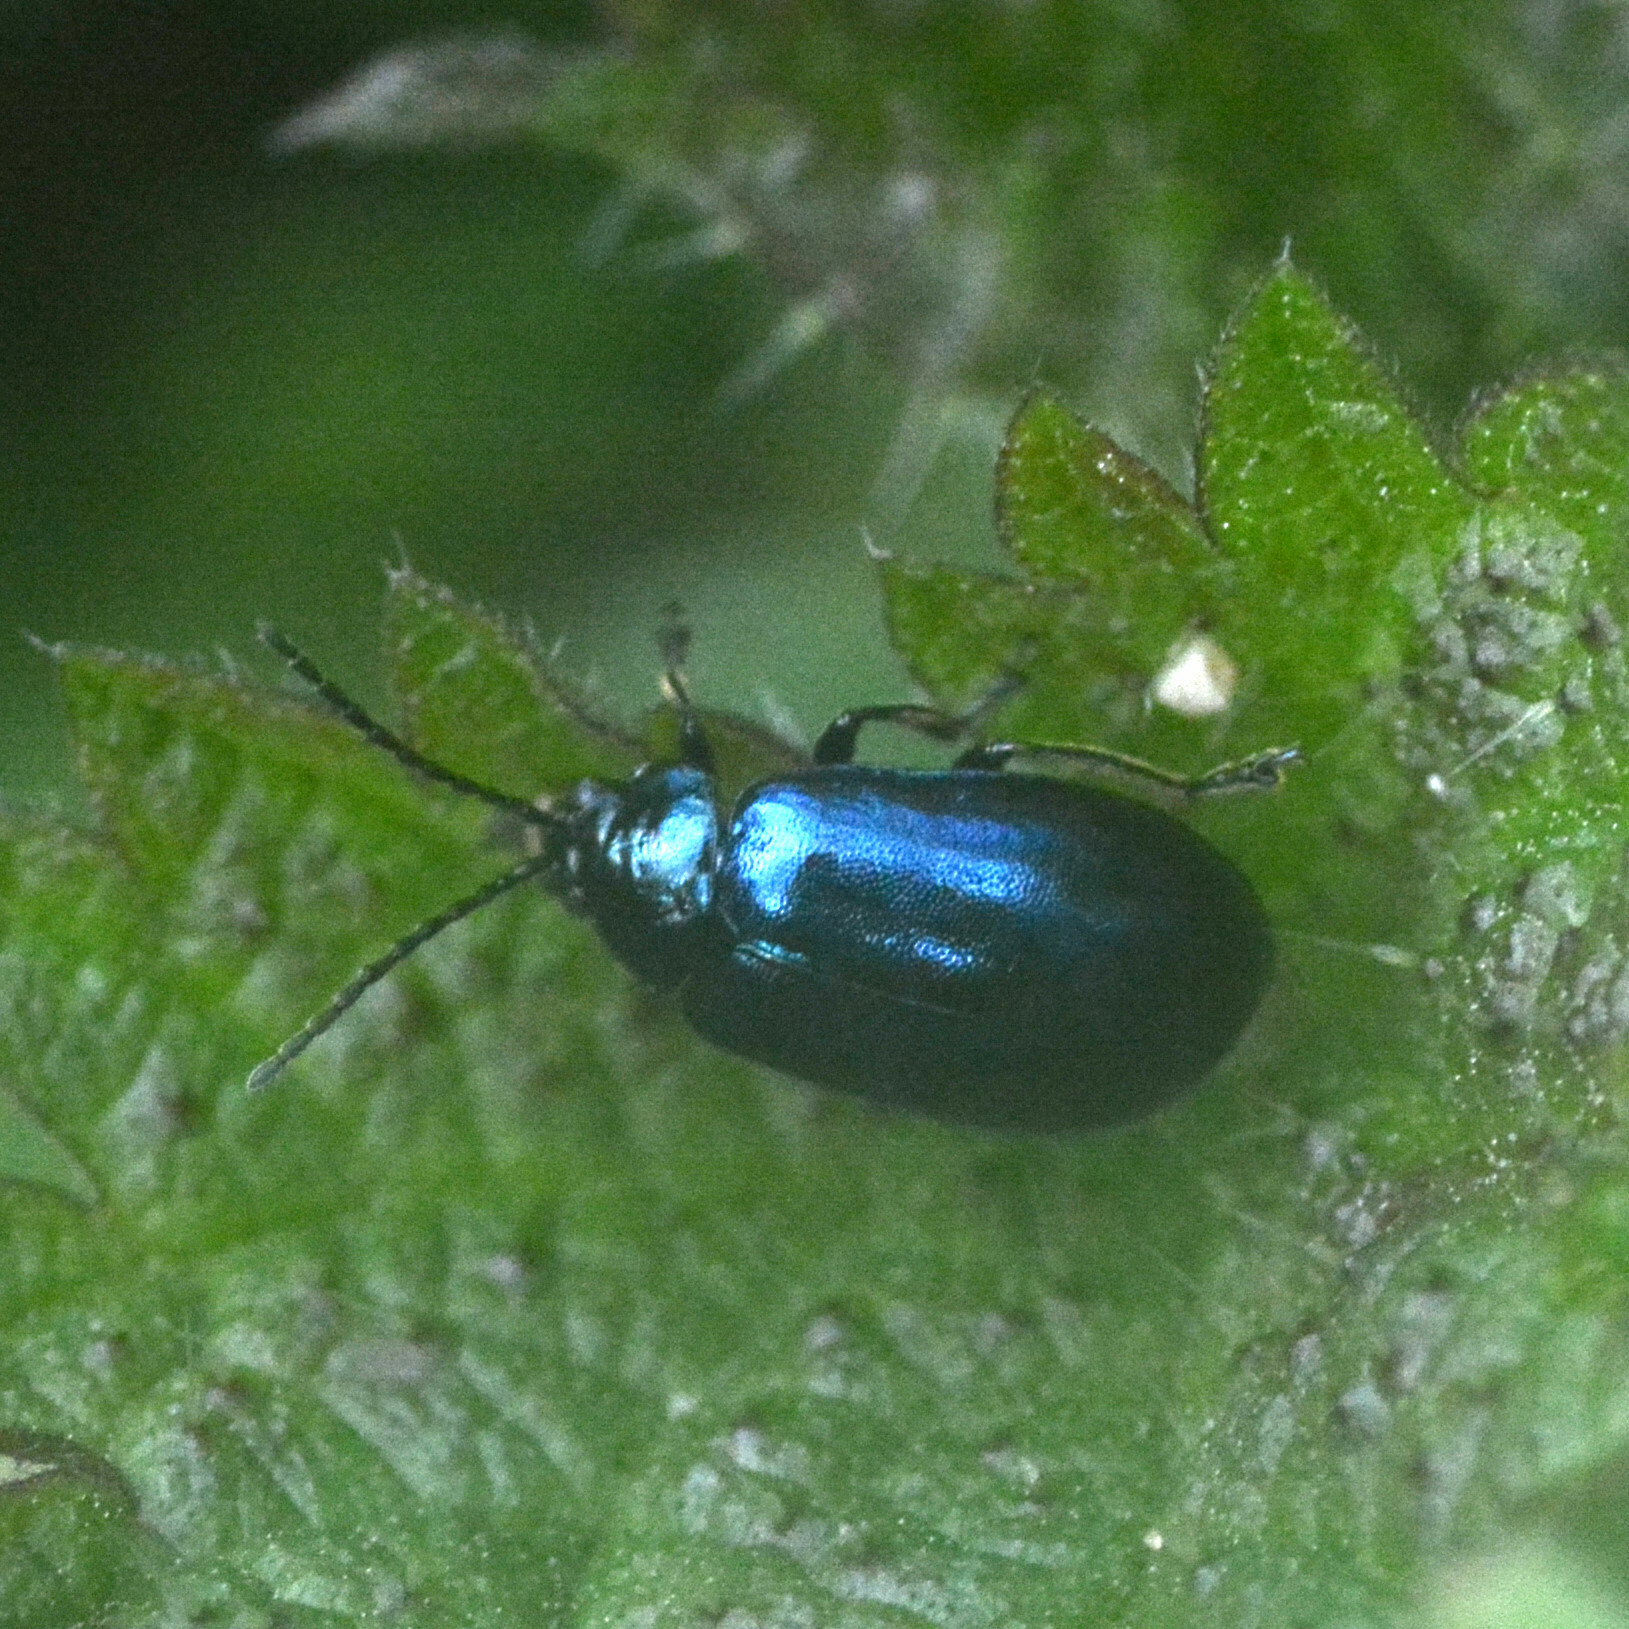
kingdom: Animalia
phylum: Arthropoda
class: Insecta
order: Coleoptera
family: Chrysomelidae
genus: Agelastica
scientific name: Agelastica alni
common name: Alder leaf beetle
